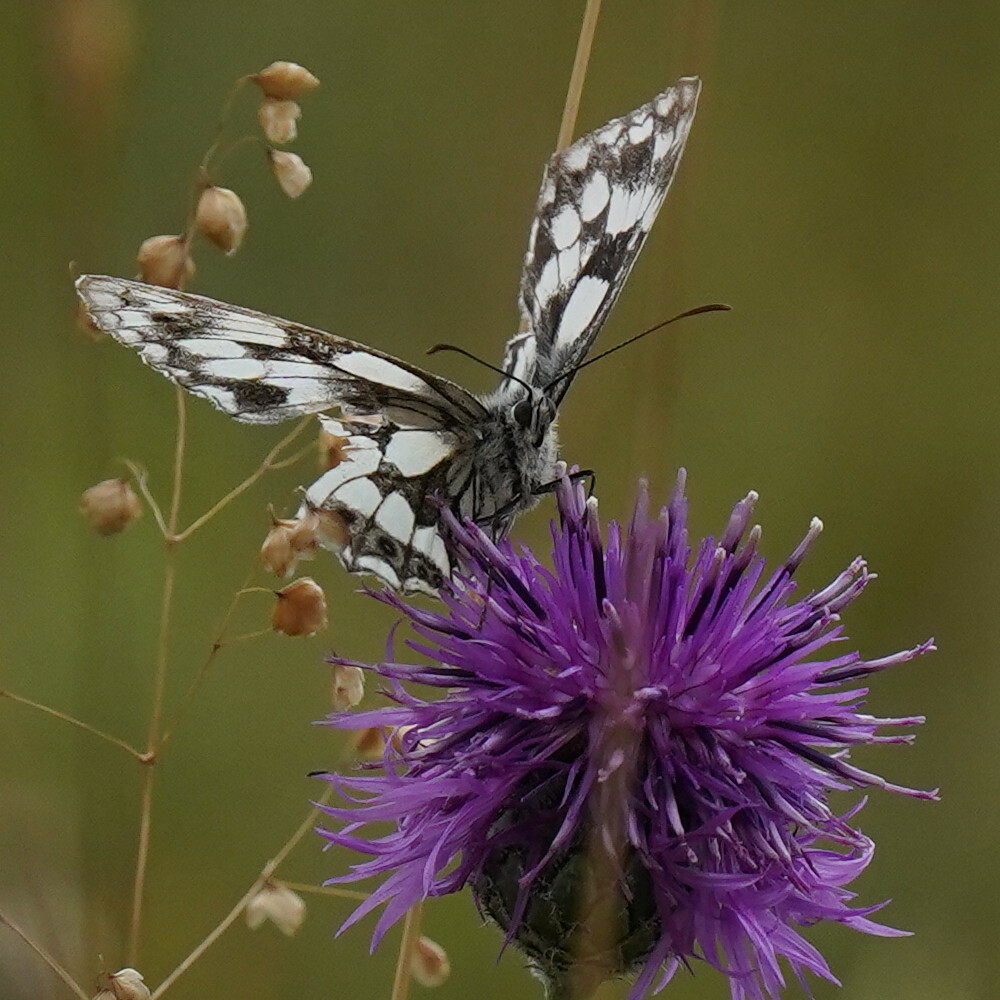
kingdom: Animalia
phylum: Arthropoda
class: Insecta
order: Lepidoptera
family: Nymphalidae
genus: Melanargia
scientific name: Melanargia galathea
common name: Marbled white
